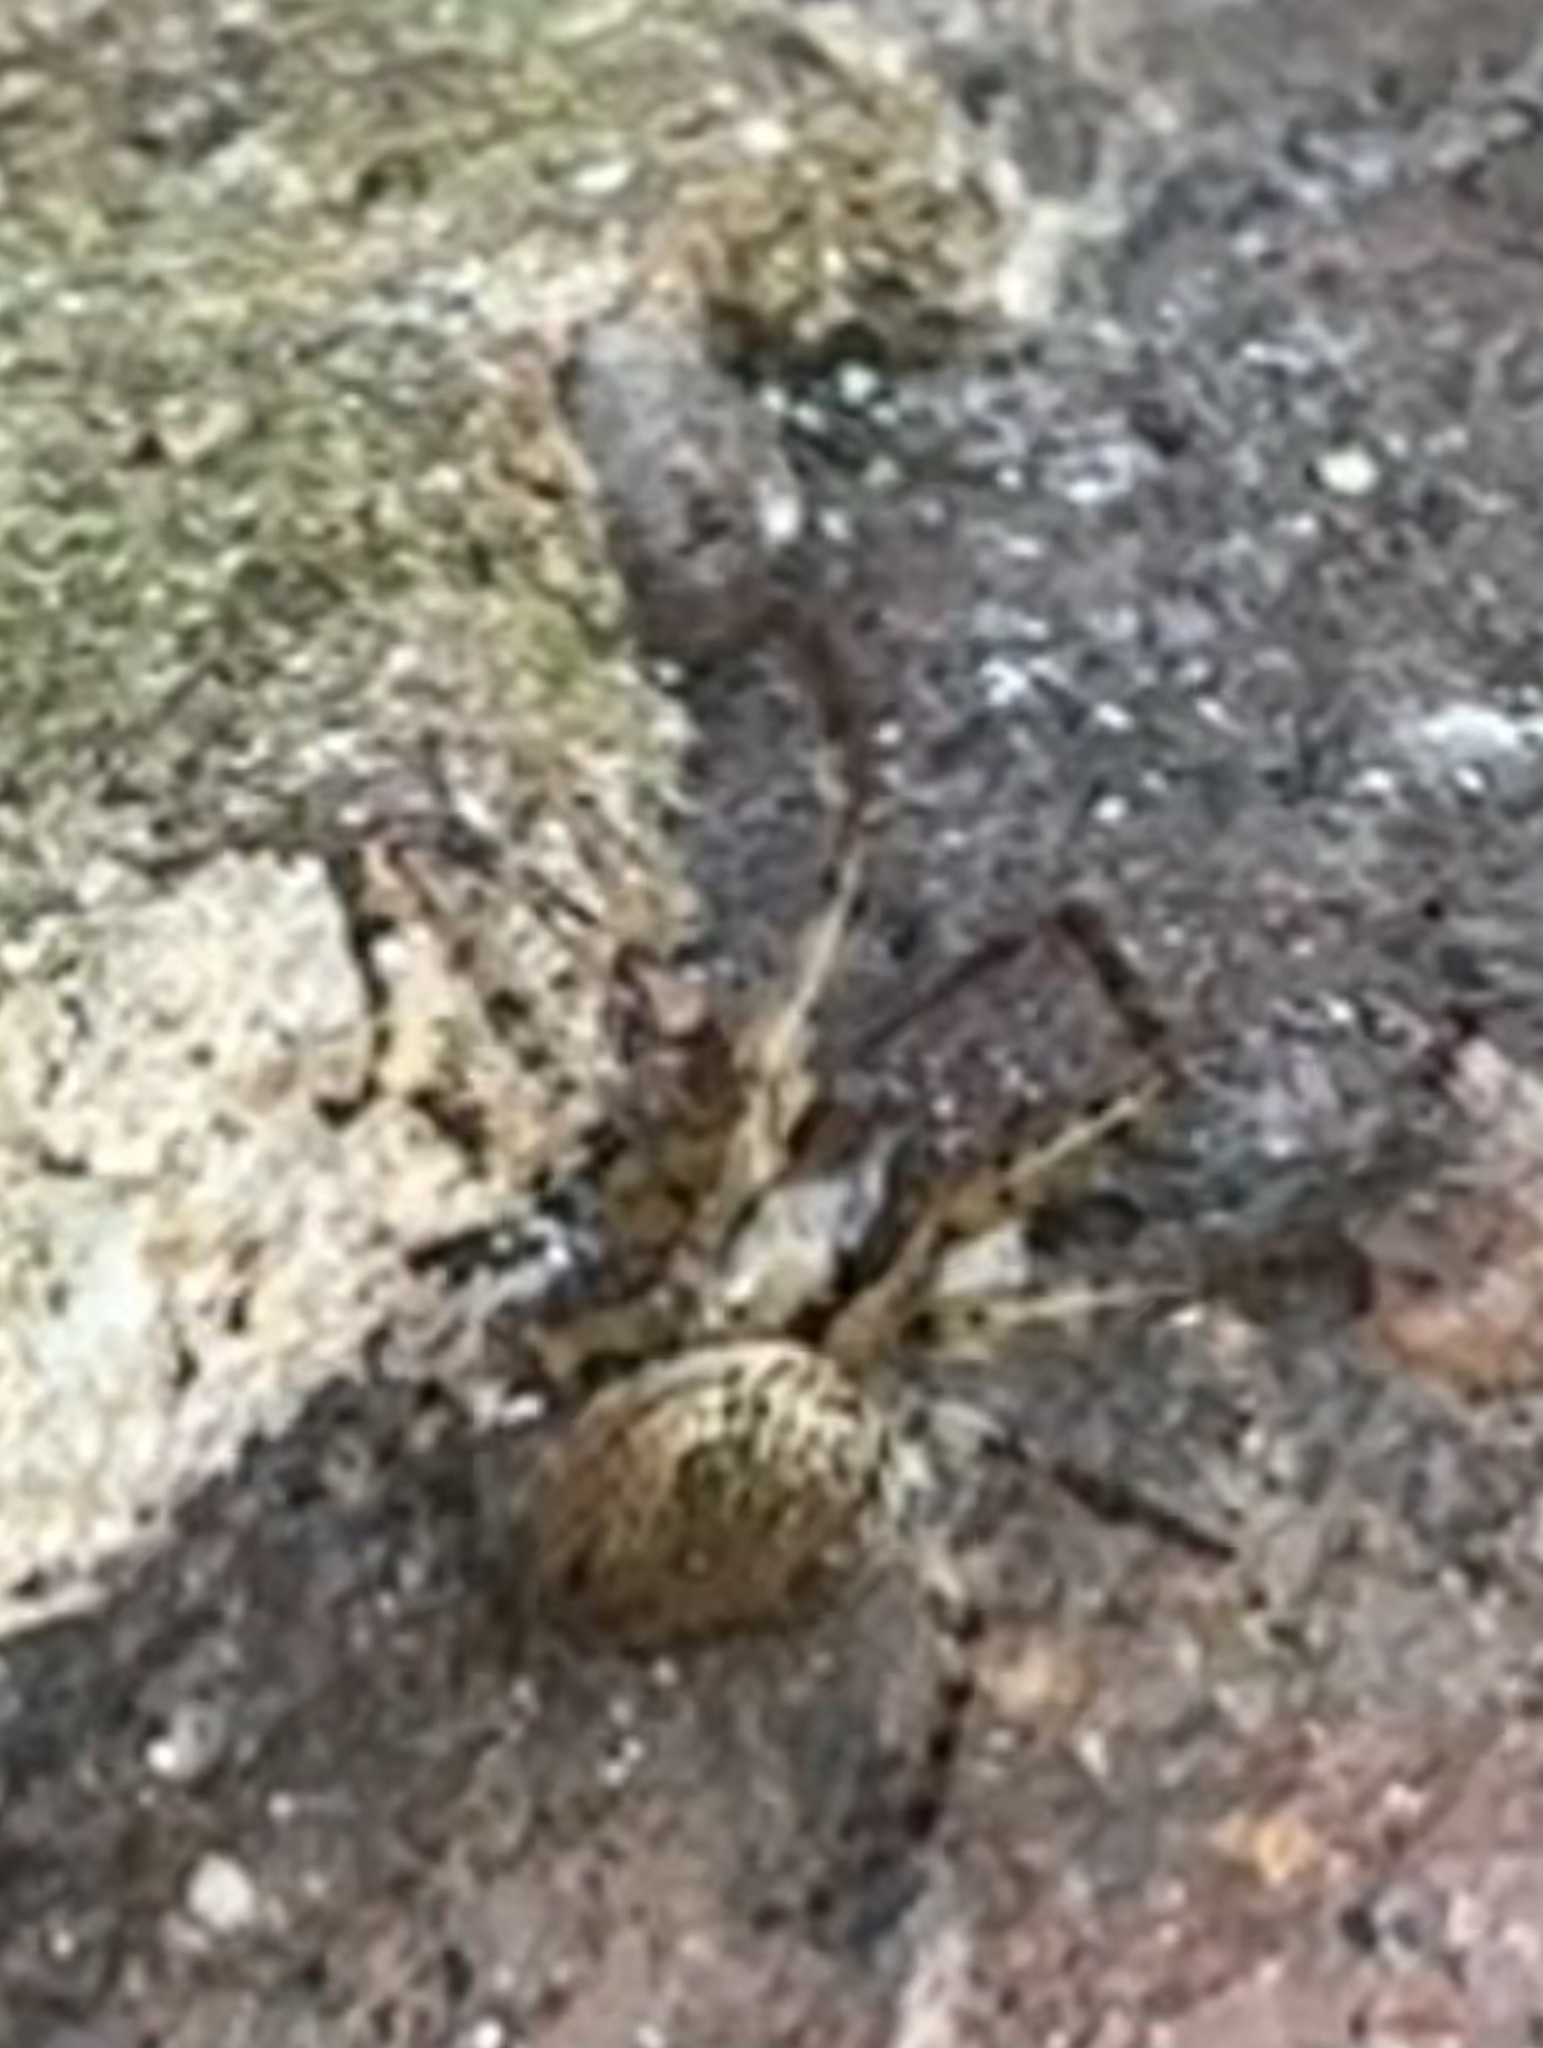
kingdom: Animalia
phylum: Arthropoda
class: Arachnida
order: Araneae
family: Tetragnathidae
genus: Metellina
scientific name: Metellina merianae
